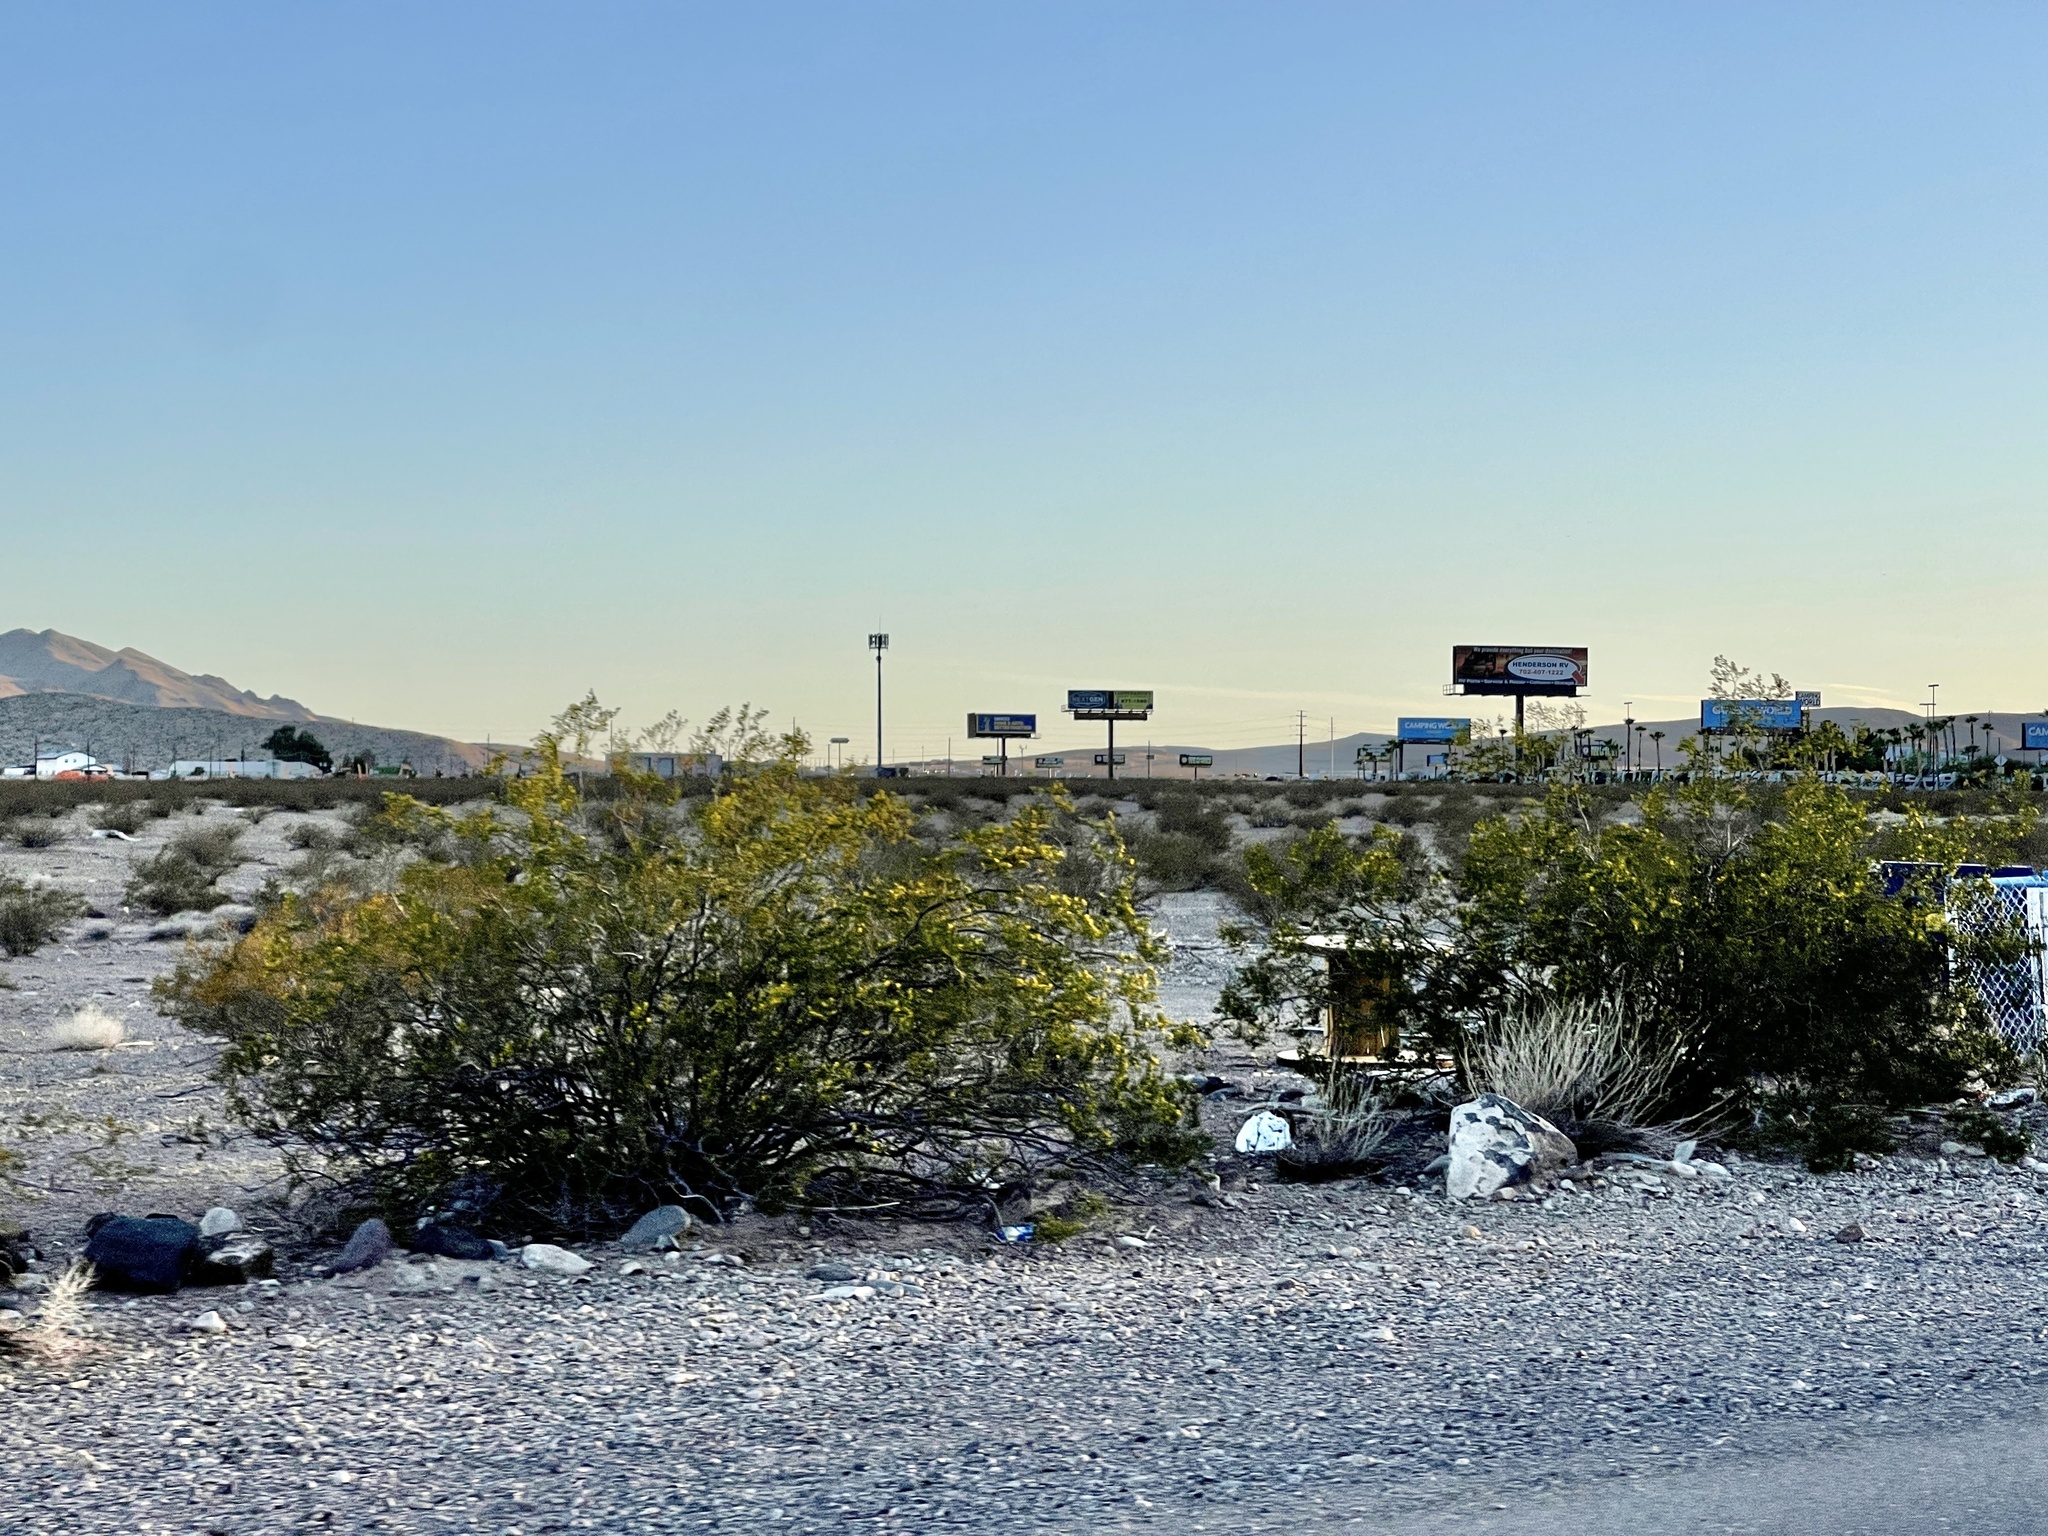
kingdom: Plantae
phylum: Tracheophyta
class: Magnoliopsida
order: Zygophyllales
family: Zygophyllaceae
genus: Larrea
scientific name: Larrea tridentata
